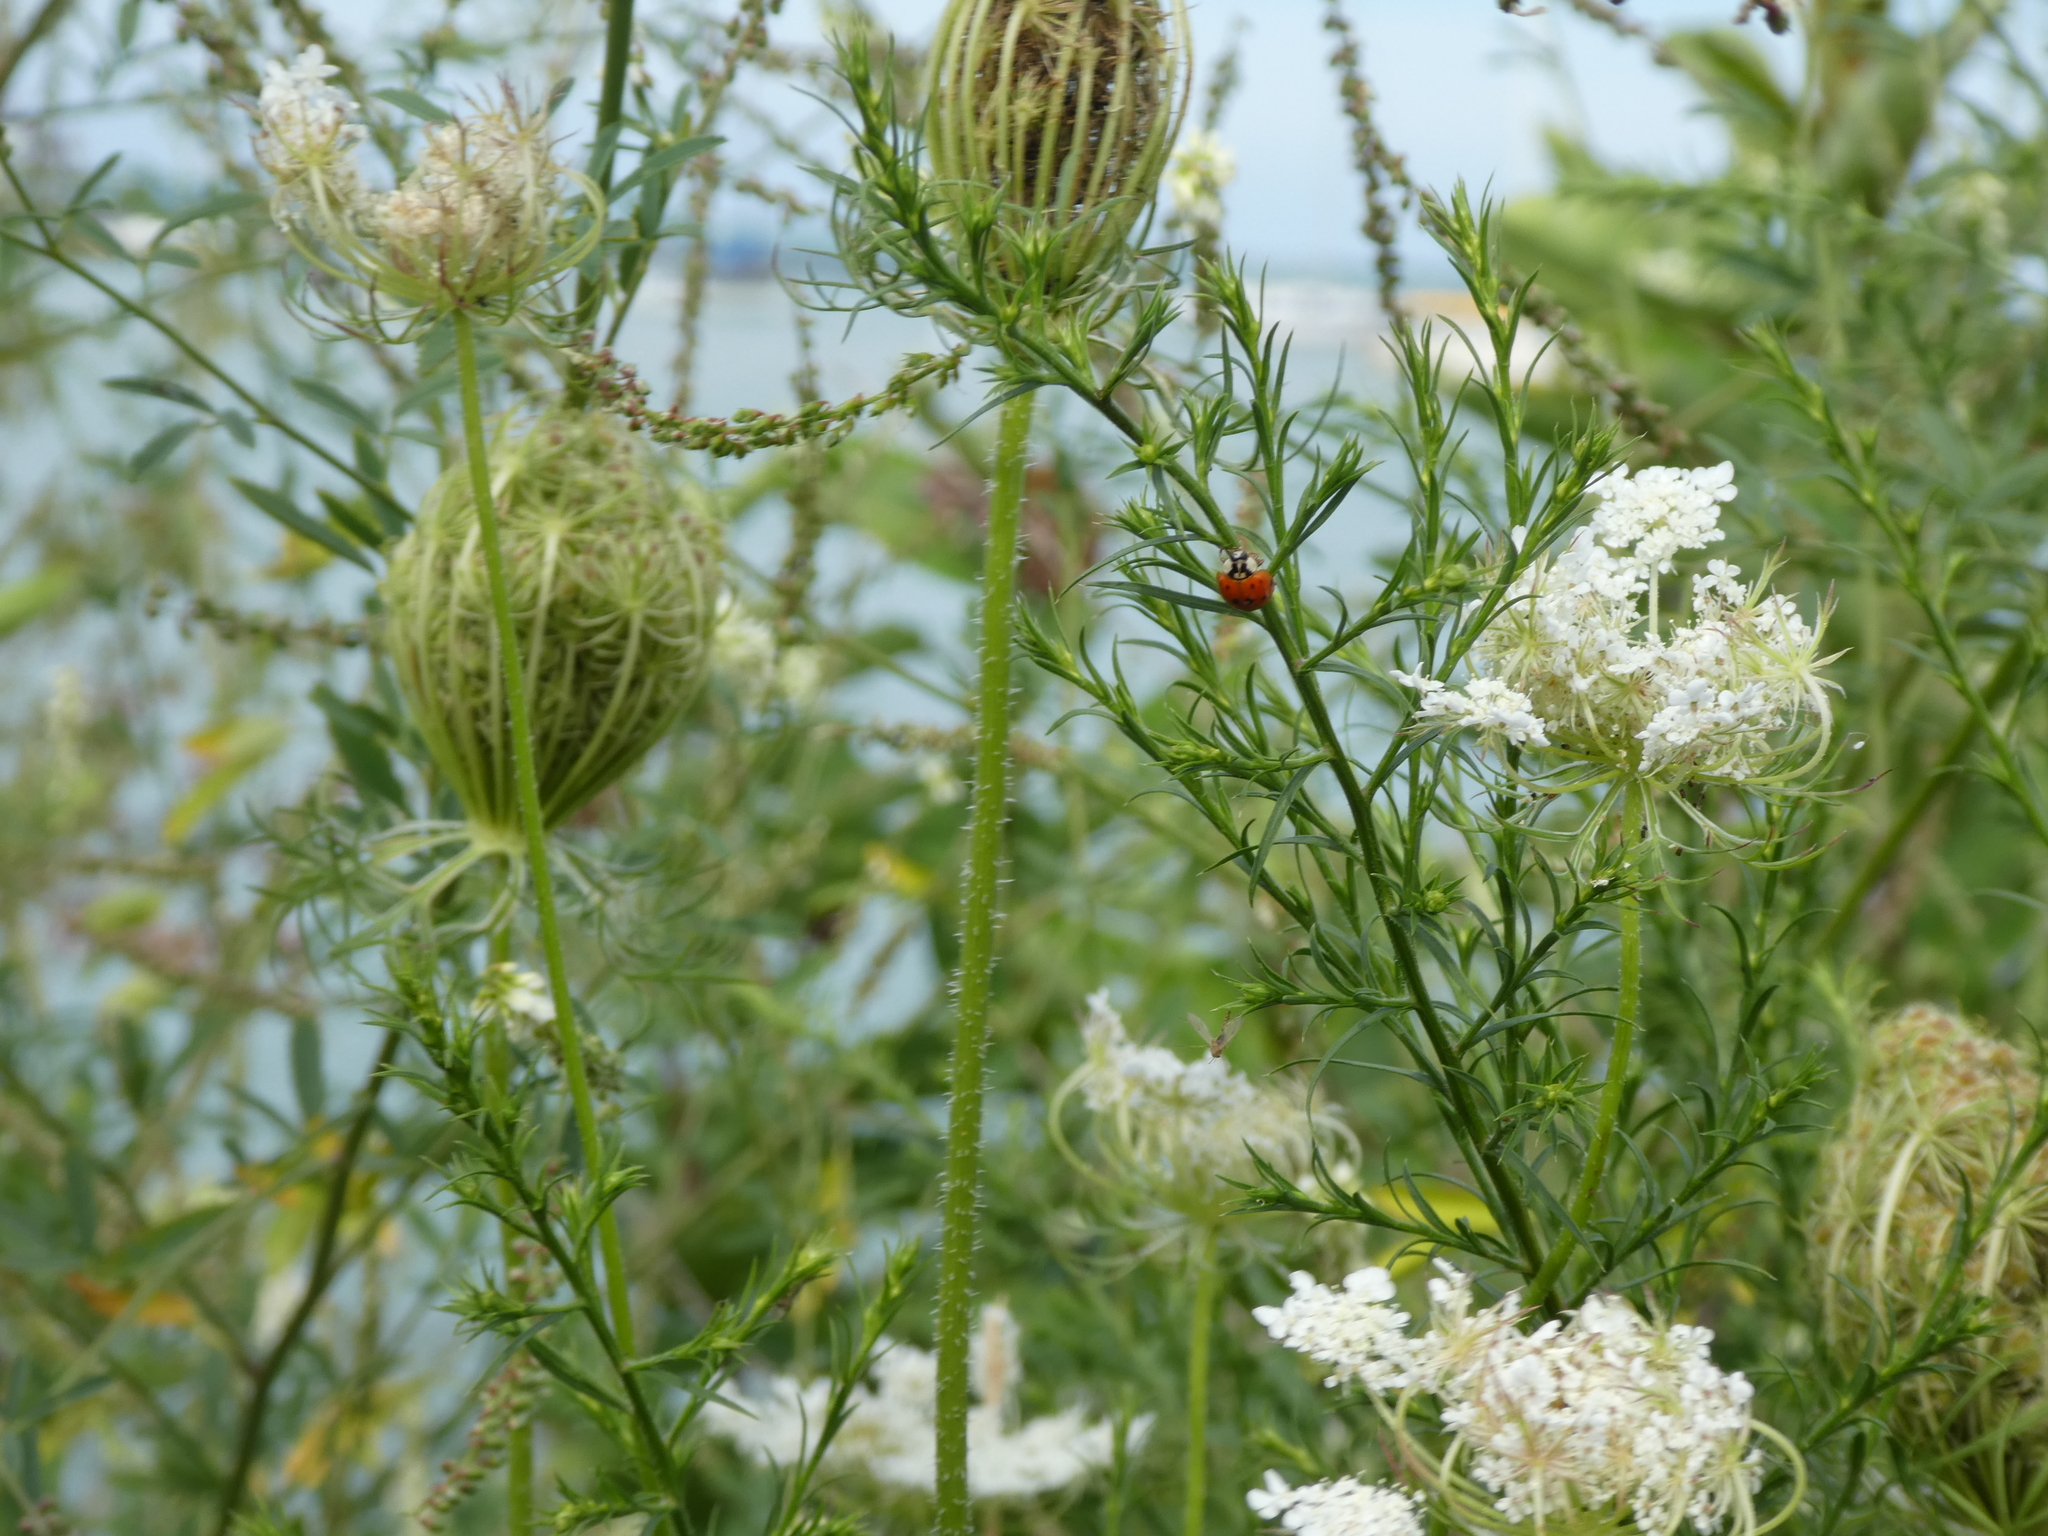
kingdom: Animalia
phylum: Arthropoda
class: Insecta
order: Coleoptera
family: Coccinellidae
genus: Harmonia
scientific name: Harmonia axyridis
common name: Harlequin ladybird
